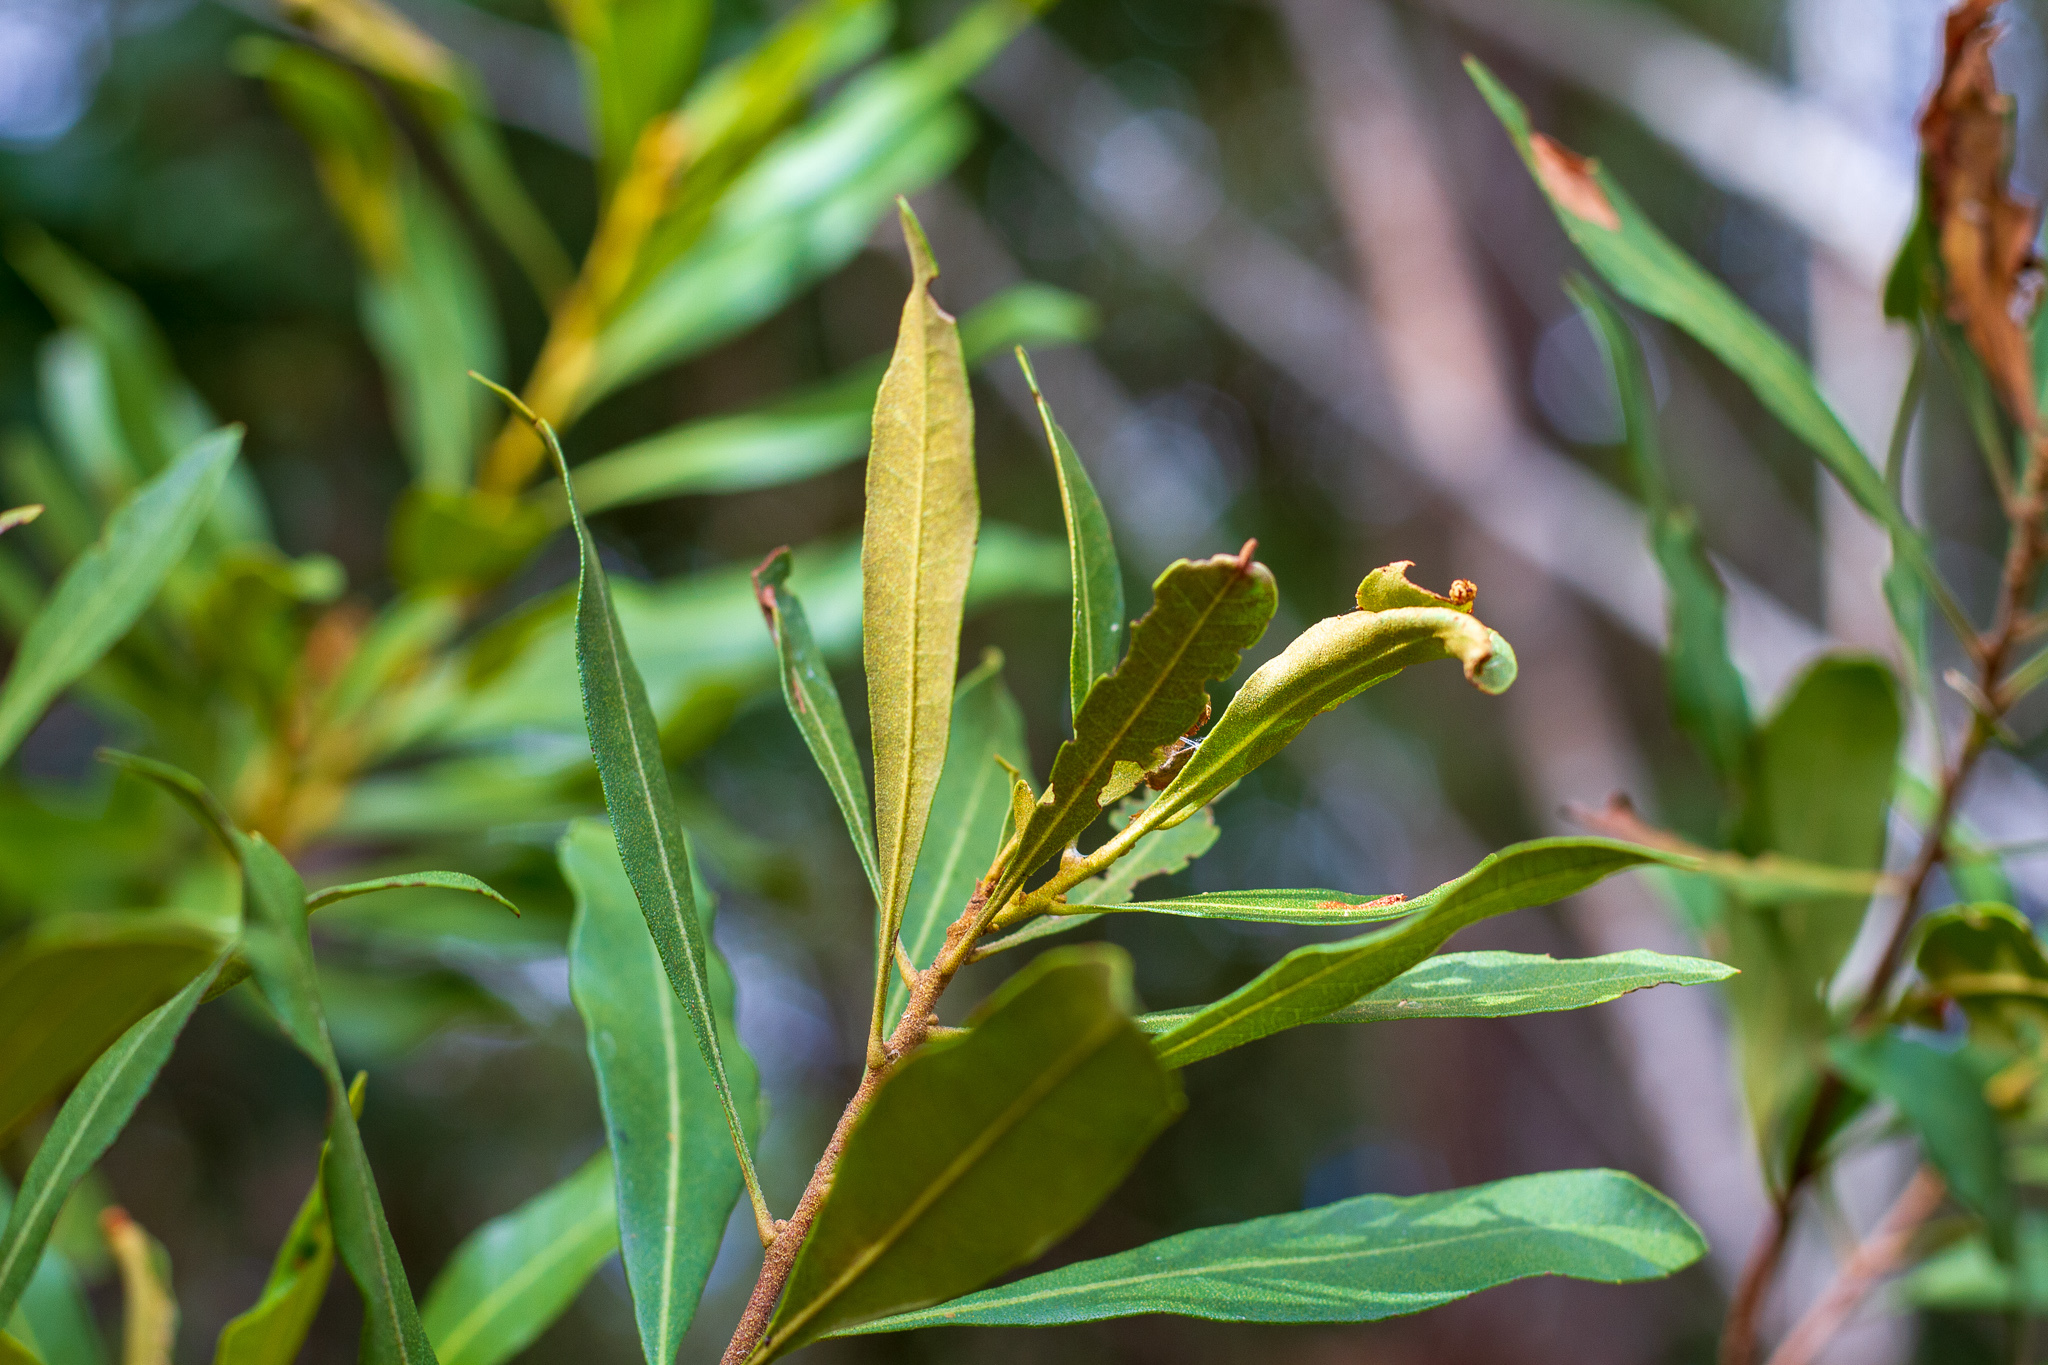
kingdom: Plantae
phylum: Tracheophyta
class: Magnoliopsida
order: Fagales
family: Myricaceae
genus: Morella
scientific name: Morella cerifera
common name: Wax myrtle
